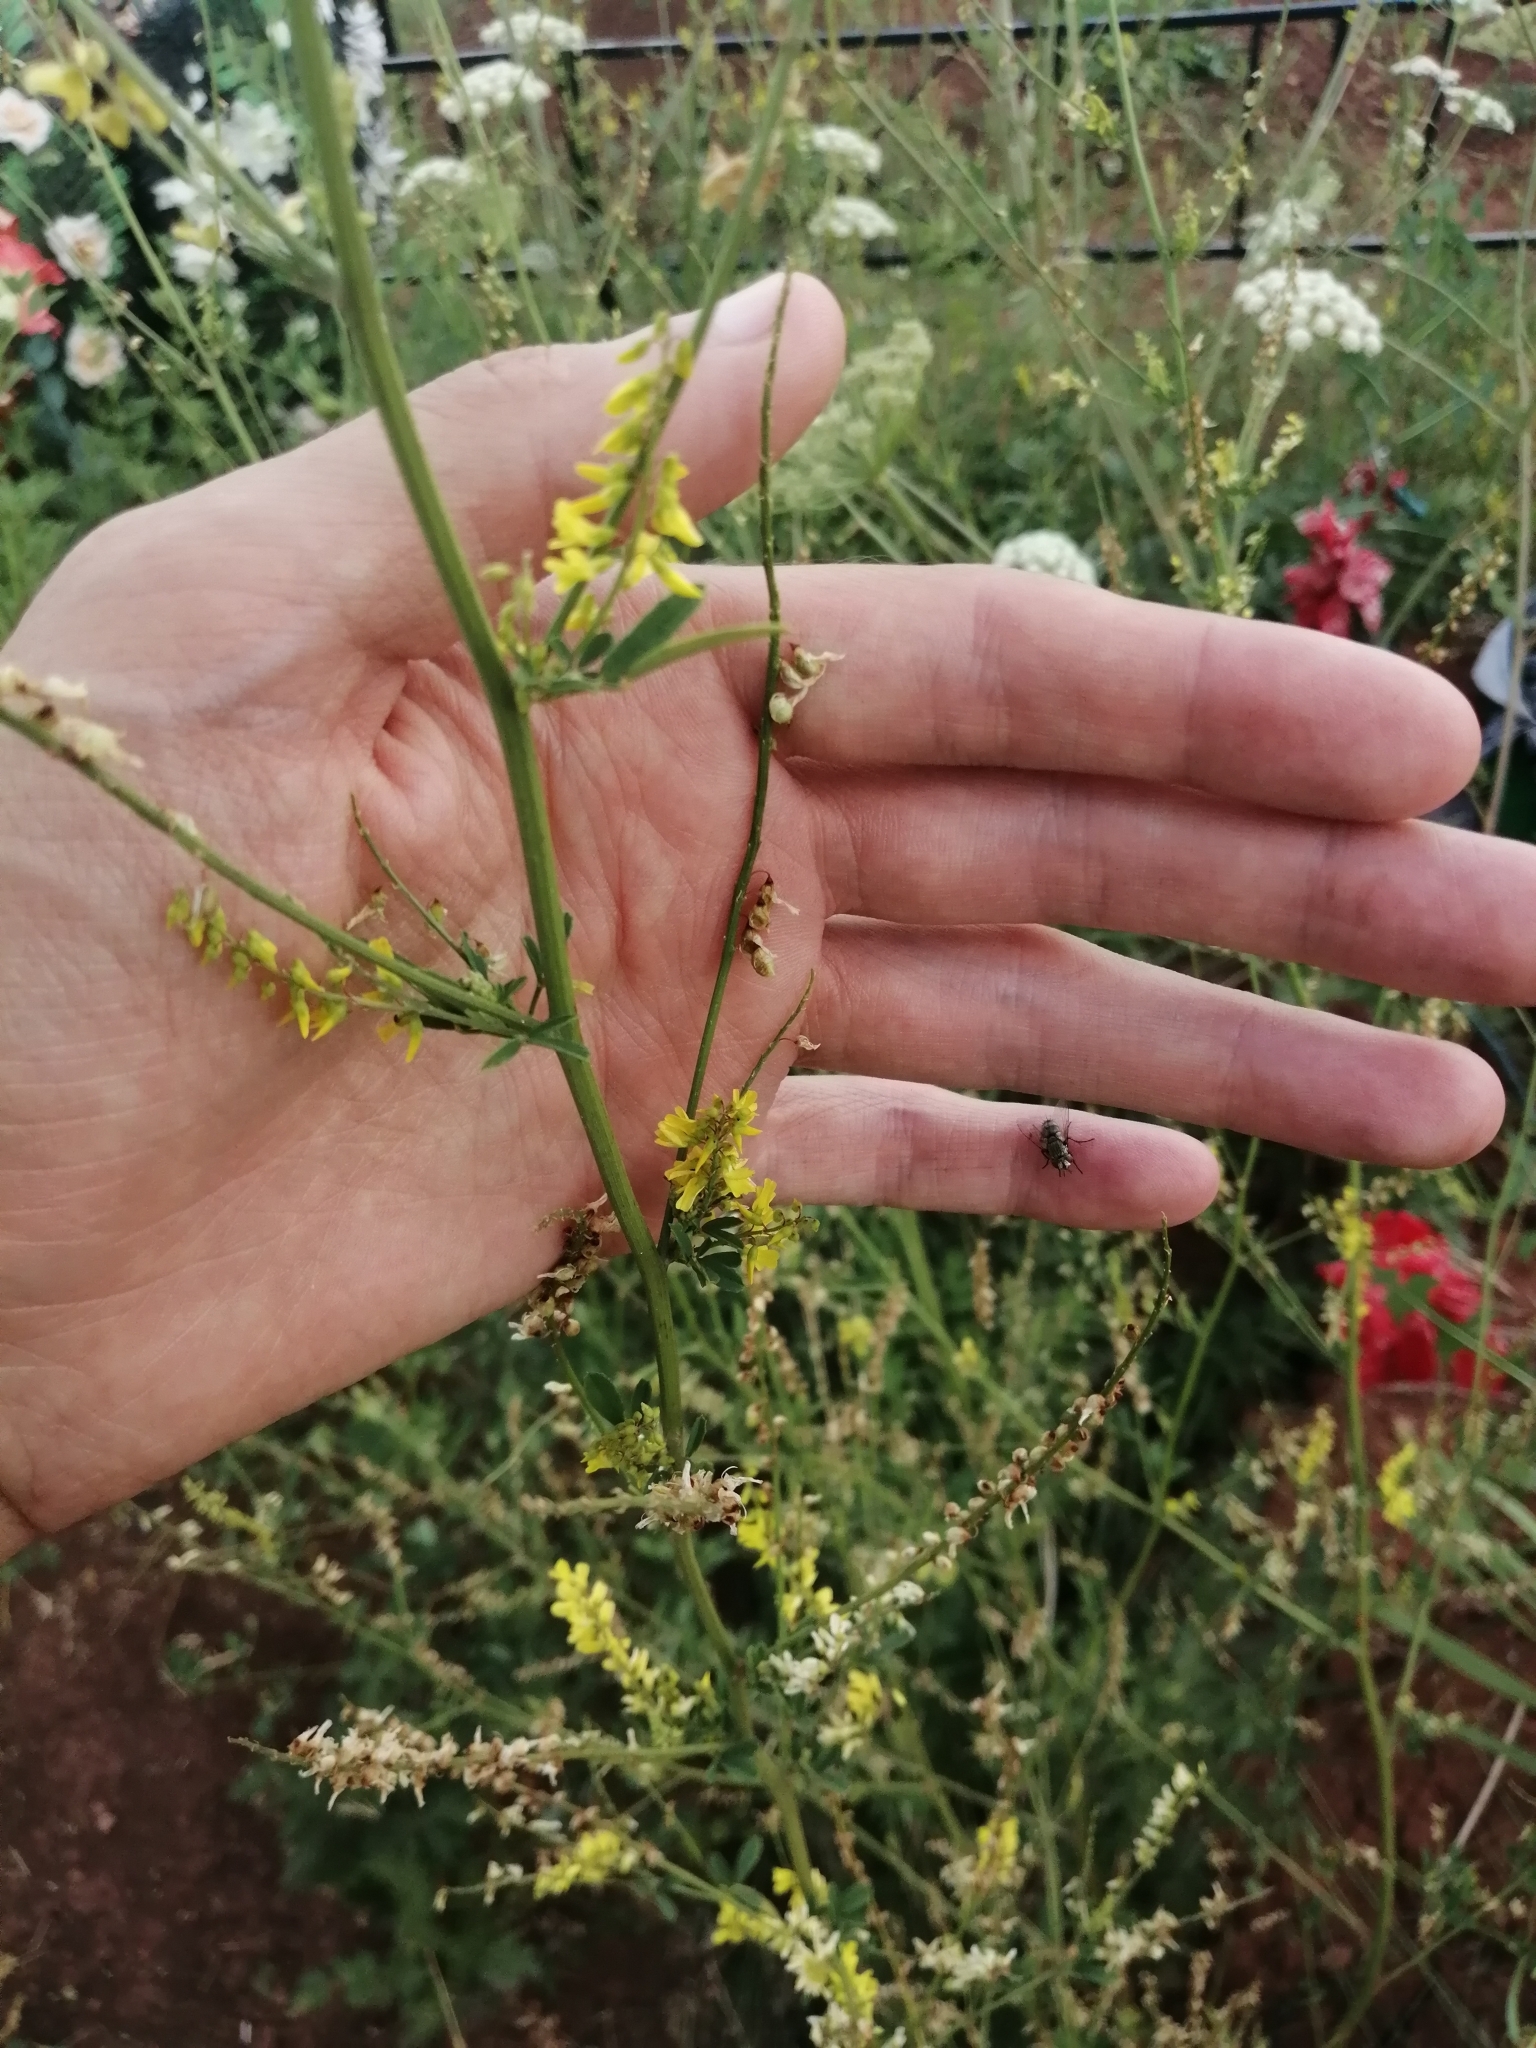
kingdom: Plantae
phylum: Tracheophyta
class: Magnoliopsida
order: Fabales
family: Fabaceae
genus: Melilotus
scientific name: Melilotus officinalis
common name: Sweetclover
